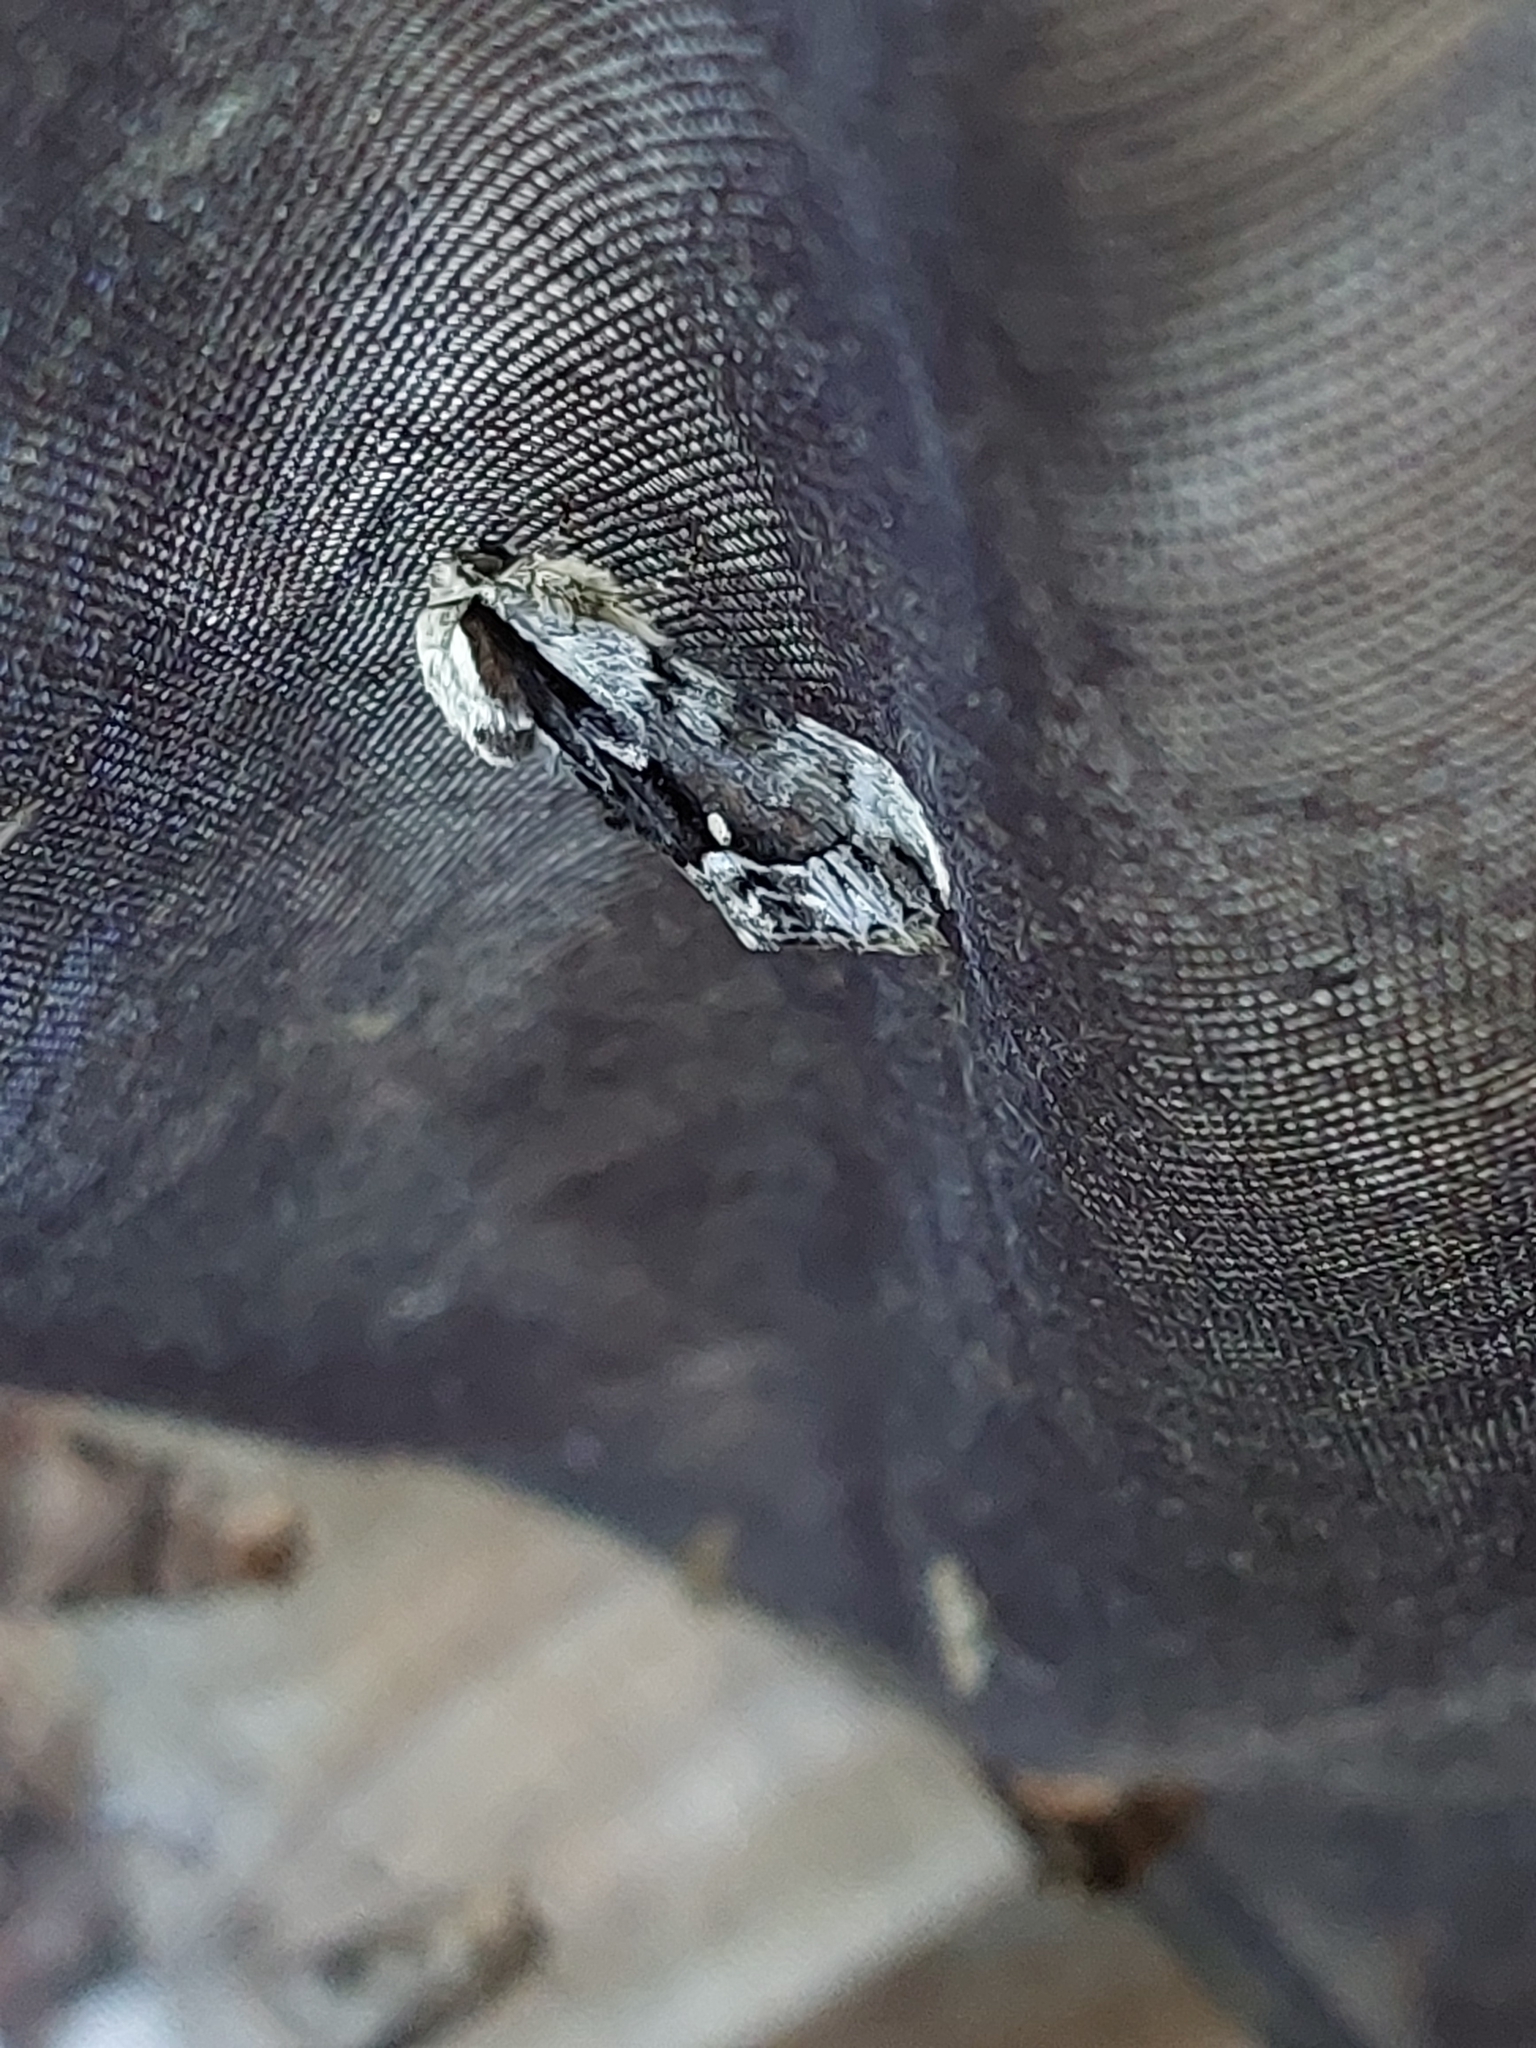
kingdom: Animalia
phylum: Arthropoda
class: Insecta
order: Lepidoptera
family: Noctuidae
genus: Hyppa
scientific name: Hyppa rectilinea
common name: Saxon
